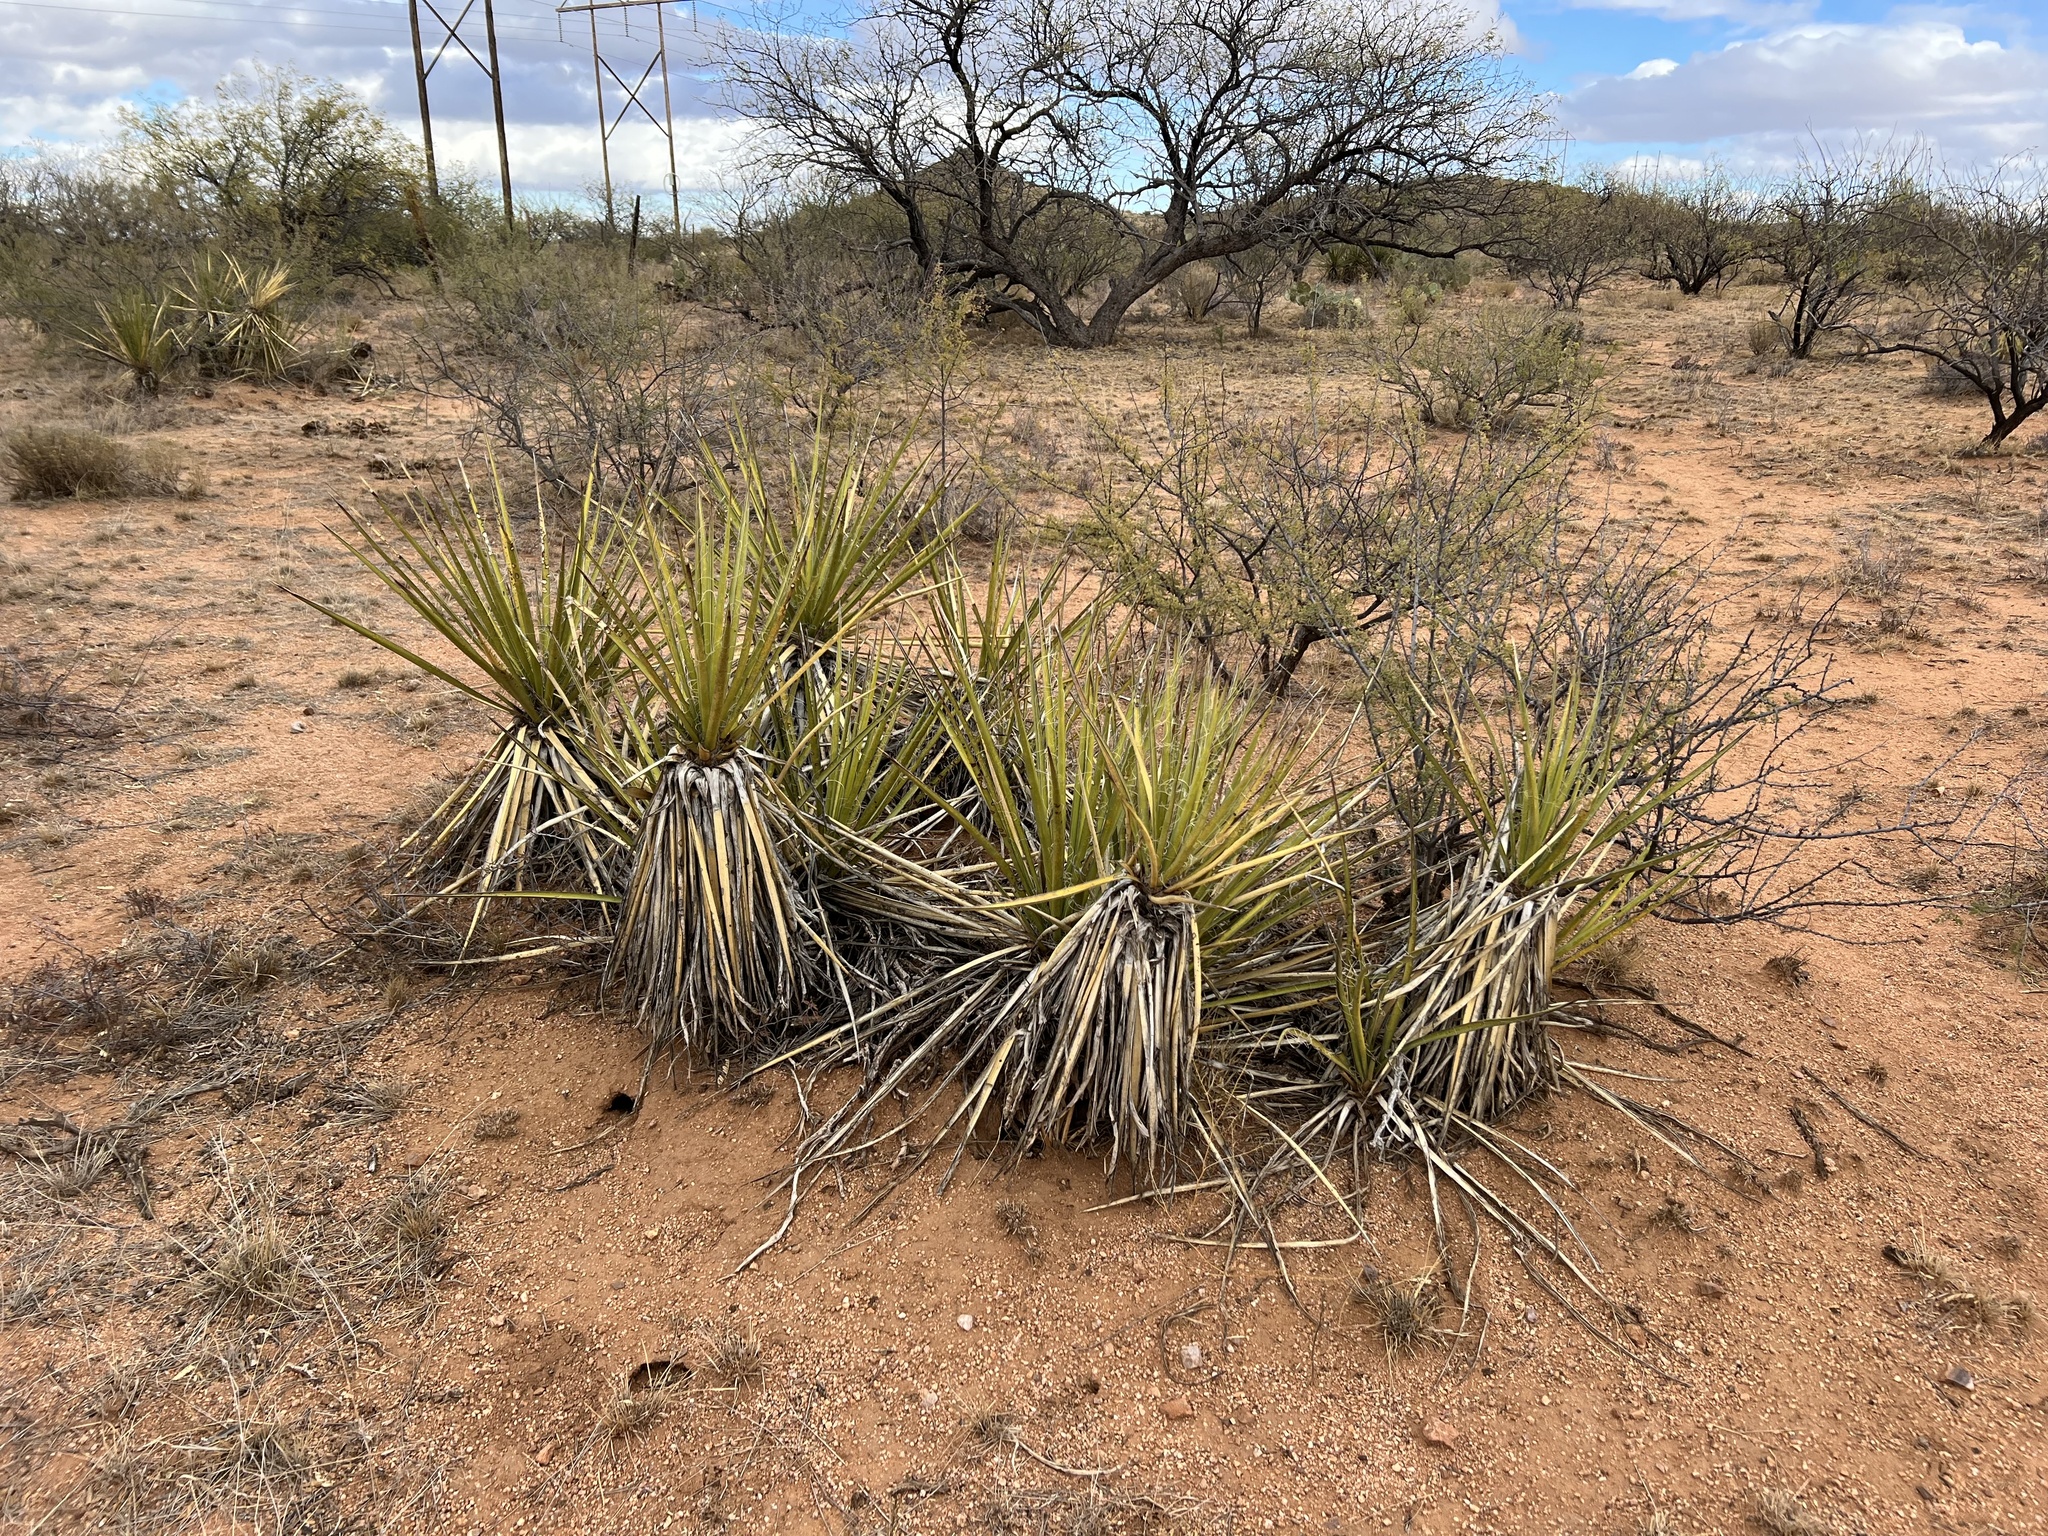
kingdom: Plantae
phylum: Tracheophyta
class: Liliopsida
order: Asparagales
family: Asparagaceae
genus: Yucca
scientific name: Yucca baccata
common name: Banana yucca
